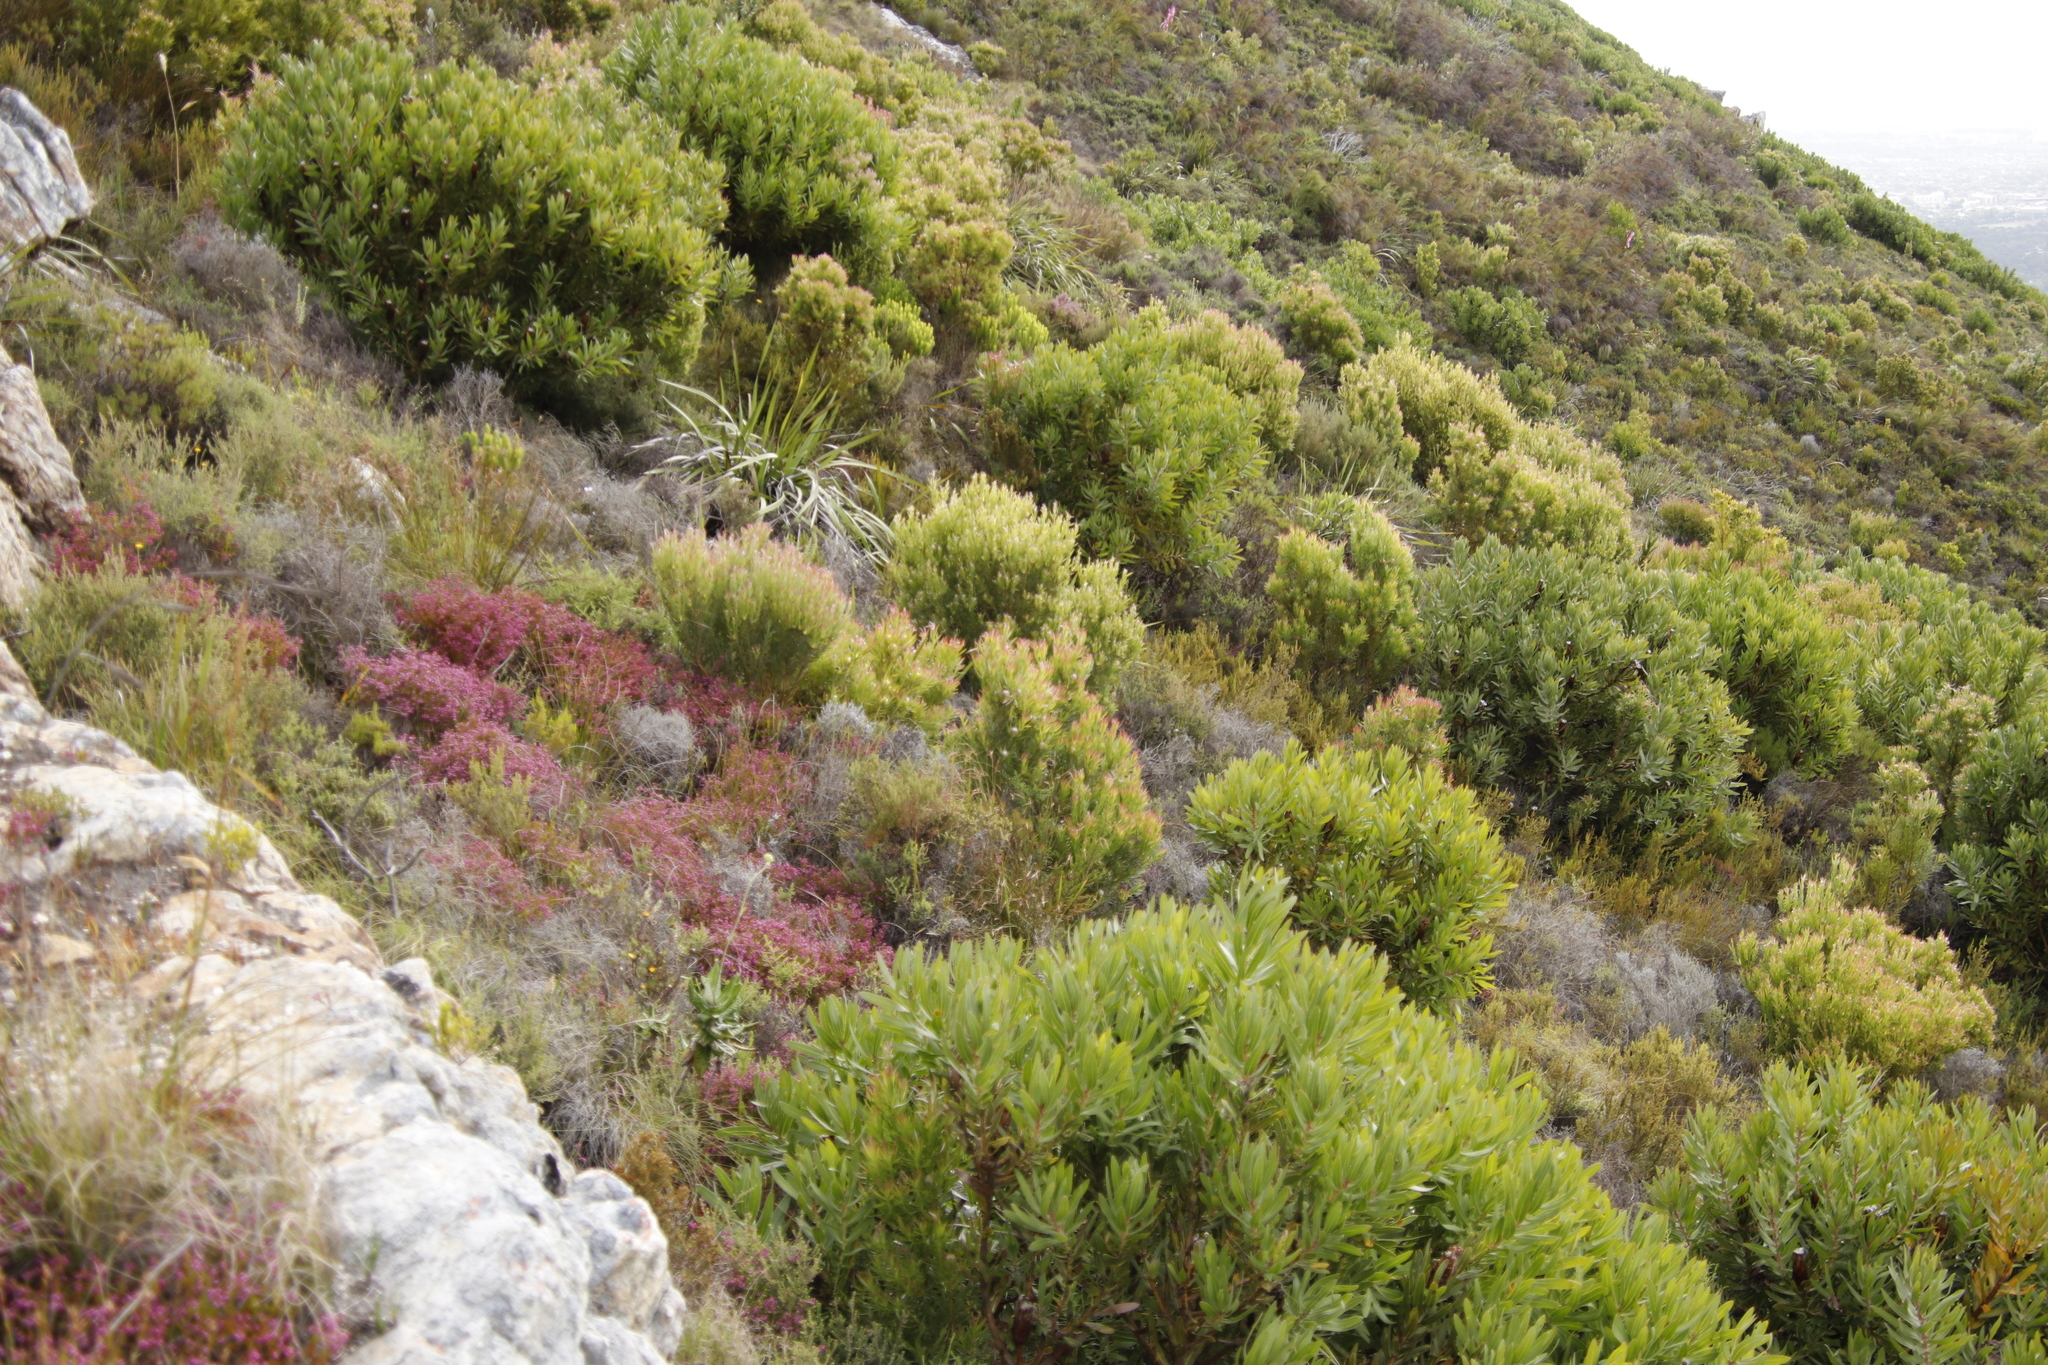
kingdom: Plantae
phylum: Tracheophyta
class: Magnoliopsida
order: Proteales
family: Proteaceae
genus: Leucadendron
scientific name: Leucadendron xanthoconus
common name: Sickle-leaf conebush
